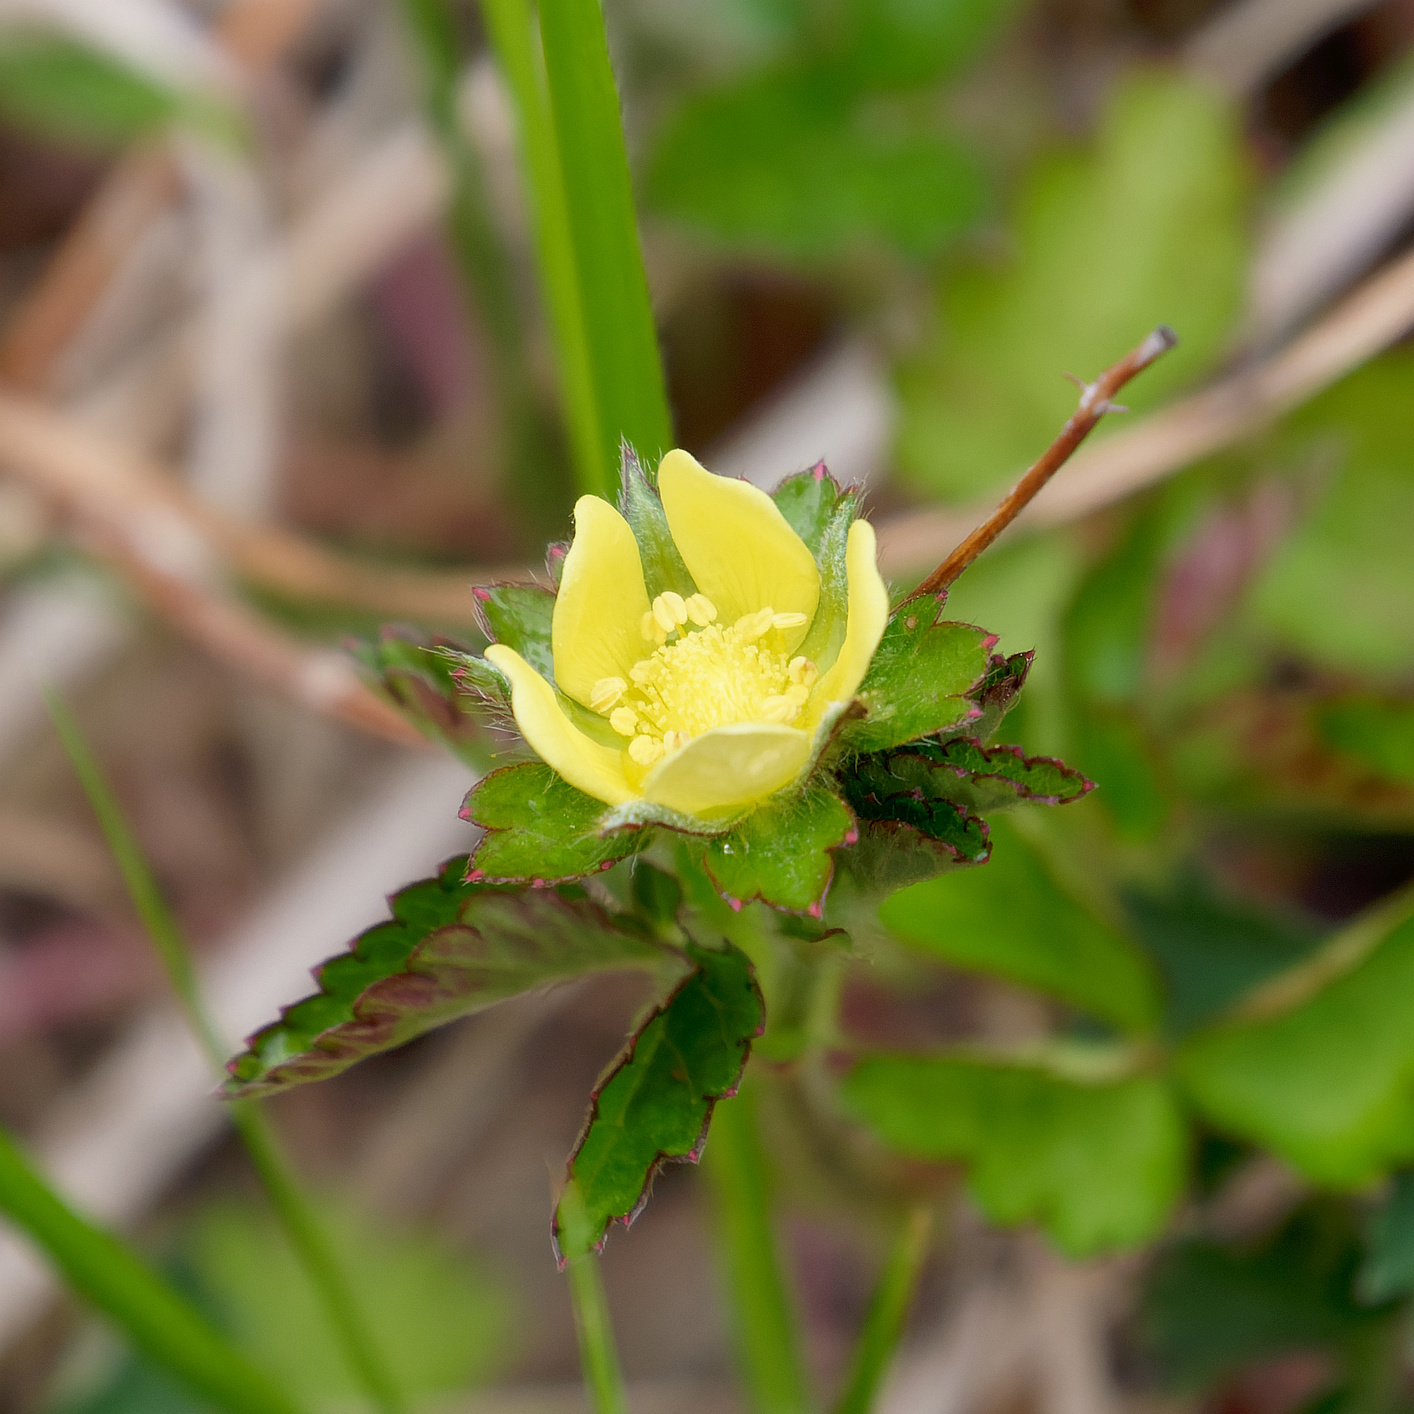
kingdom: Plantae
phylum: Tracheophyta
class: Magnoliopsida
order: Rosales
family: Rosaceae
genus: Potentilla
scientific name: Potentilla indica
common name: Yellow-flowered strawberry
